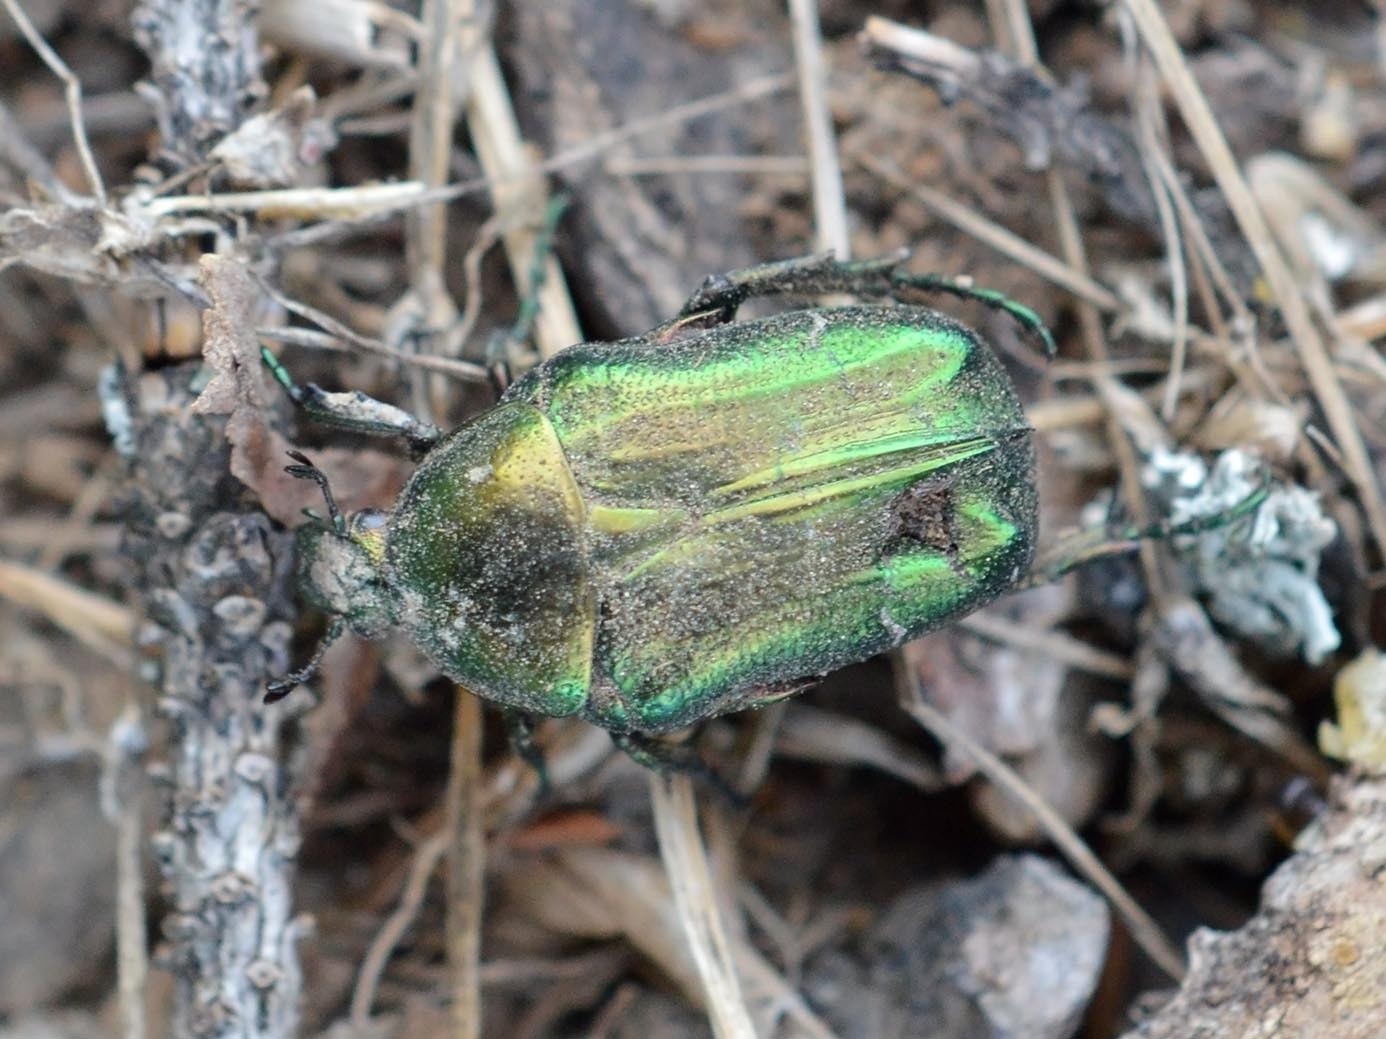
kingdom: Animalia
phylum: Arthropoda
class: Insecta
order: Coleoptera
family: Scarabaeidae
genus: Cetonia
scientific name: Cetonia aurata
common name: Rose chafer
